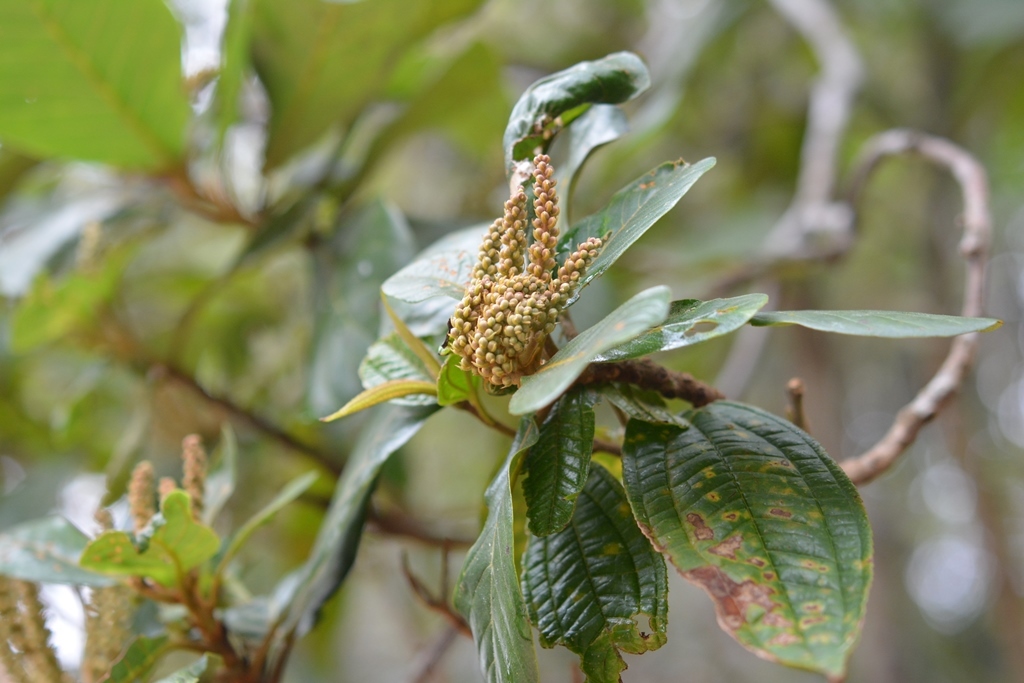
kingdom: Plantae
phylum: Tracheophyta
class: Magnoliopsida
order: Ericales
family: Clethraceae
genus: Clethra
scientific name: Clethra purpusii
